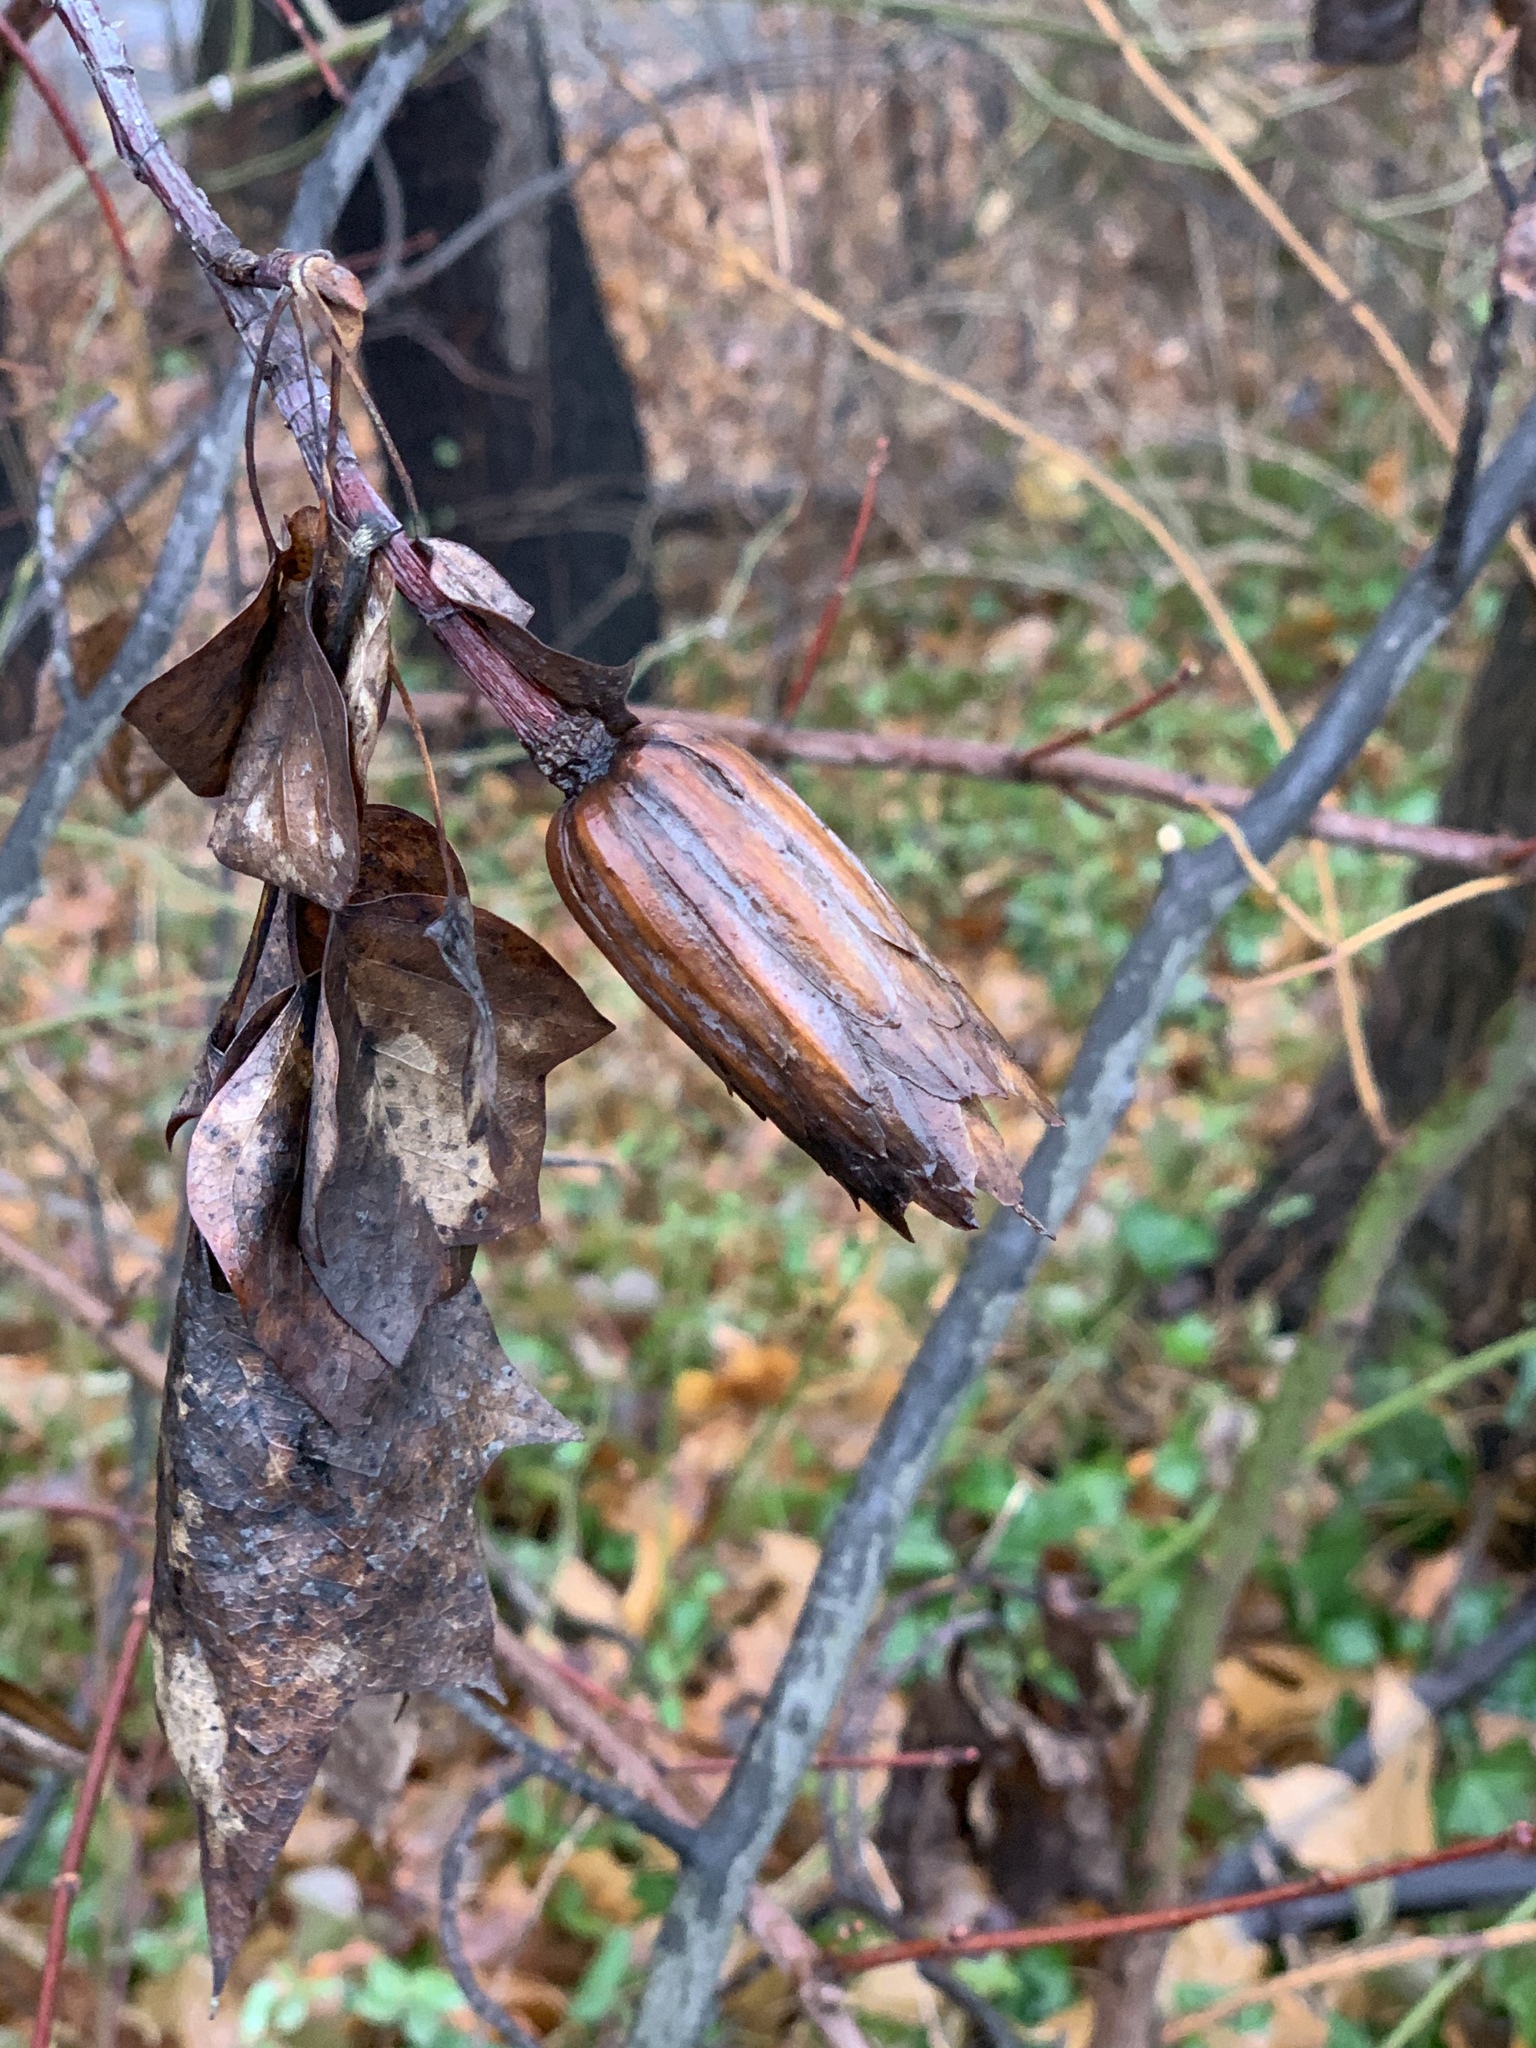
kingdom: Plantae
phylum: Tracheophyta
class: Magnoliopsida
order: Magnoliales
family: Magnoliaceae
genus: Liriodendron
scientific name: Liriodendron tulipifera
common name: Tulip tree
